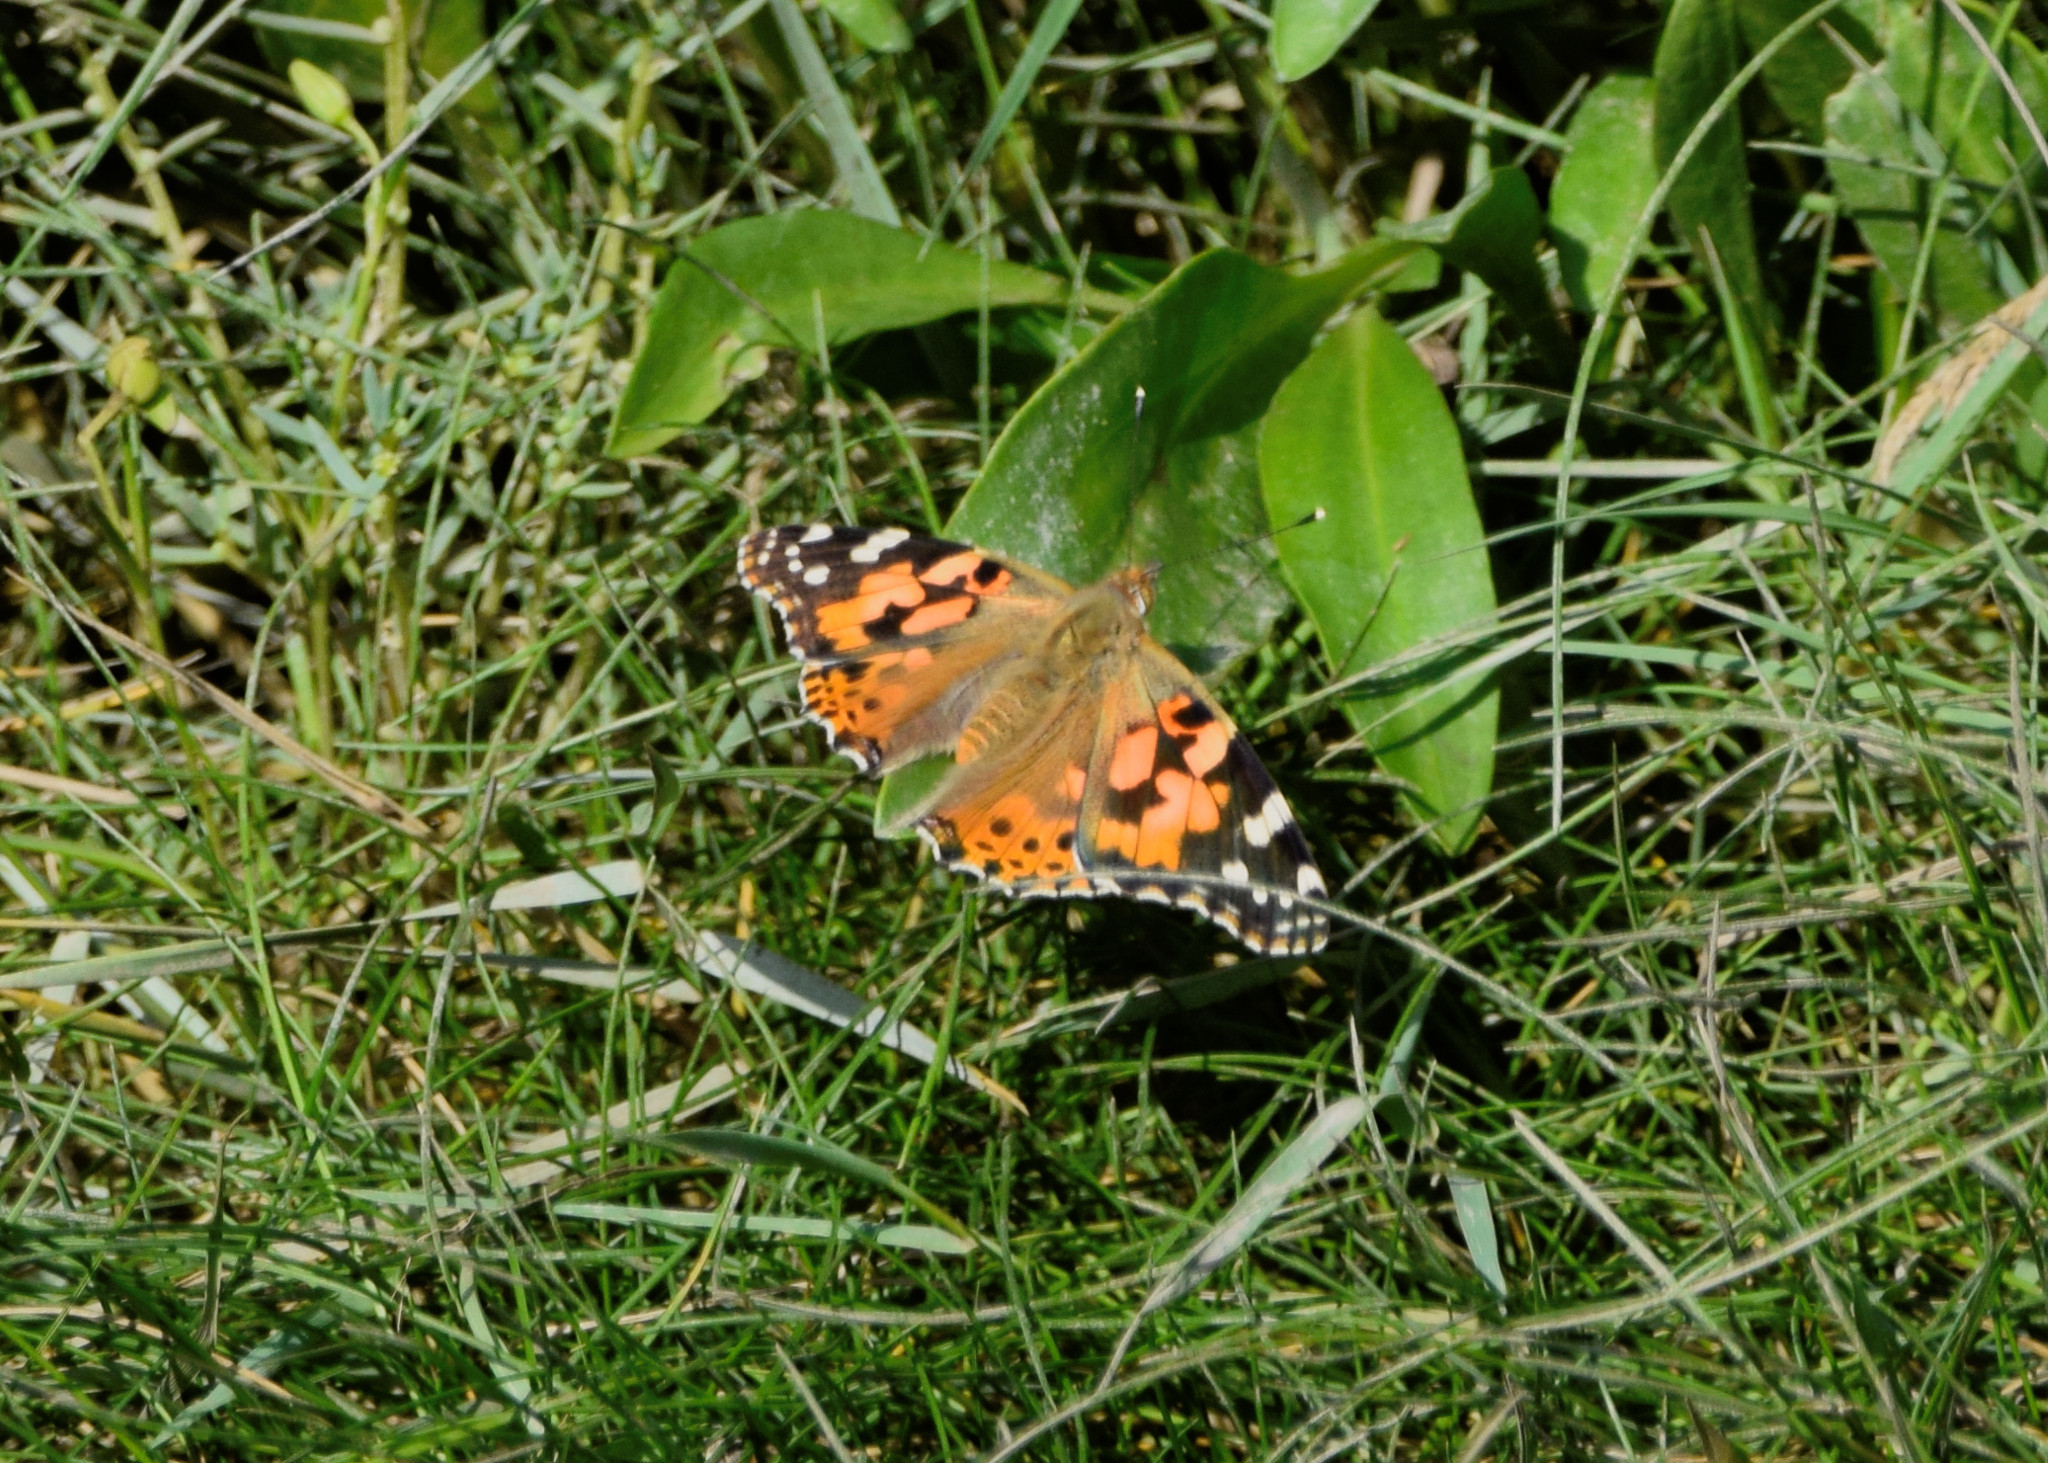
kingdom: Animalia
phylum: Arthropoda
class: Insecta
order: Lepidoptera
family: Nymphalidae
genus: Vanessa
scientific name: Vanessa cardui
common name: Painted lady
